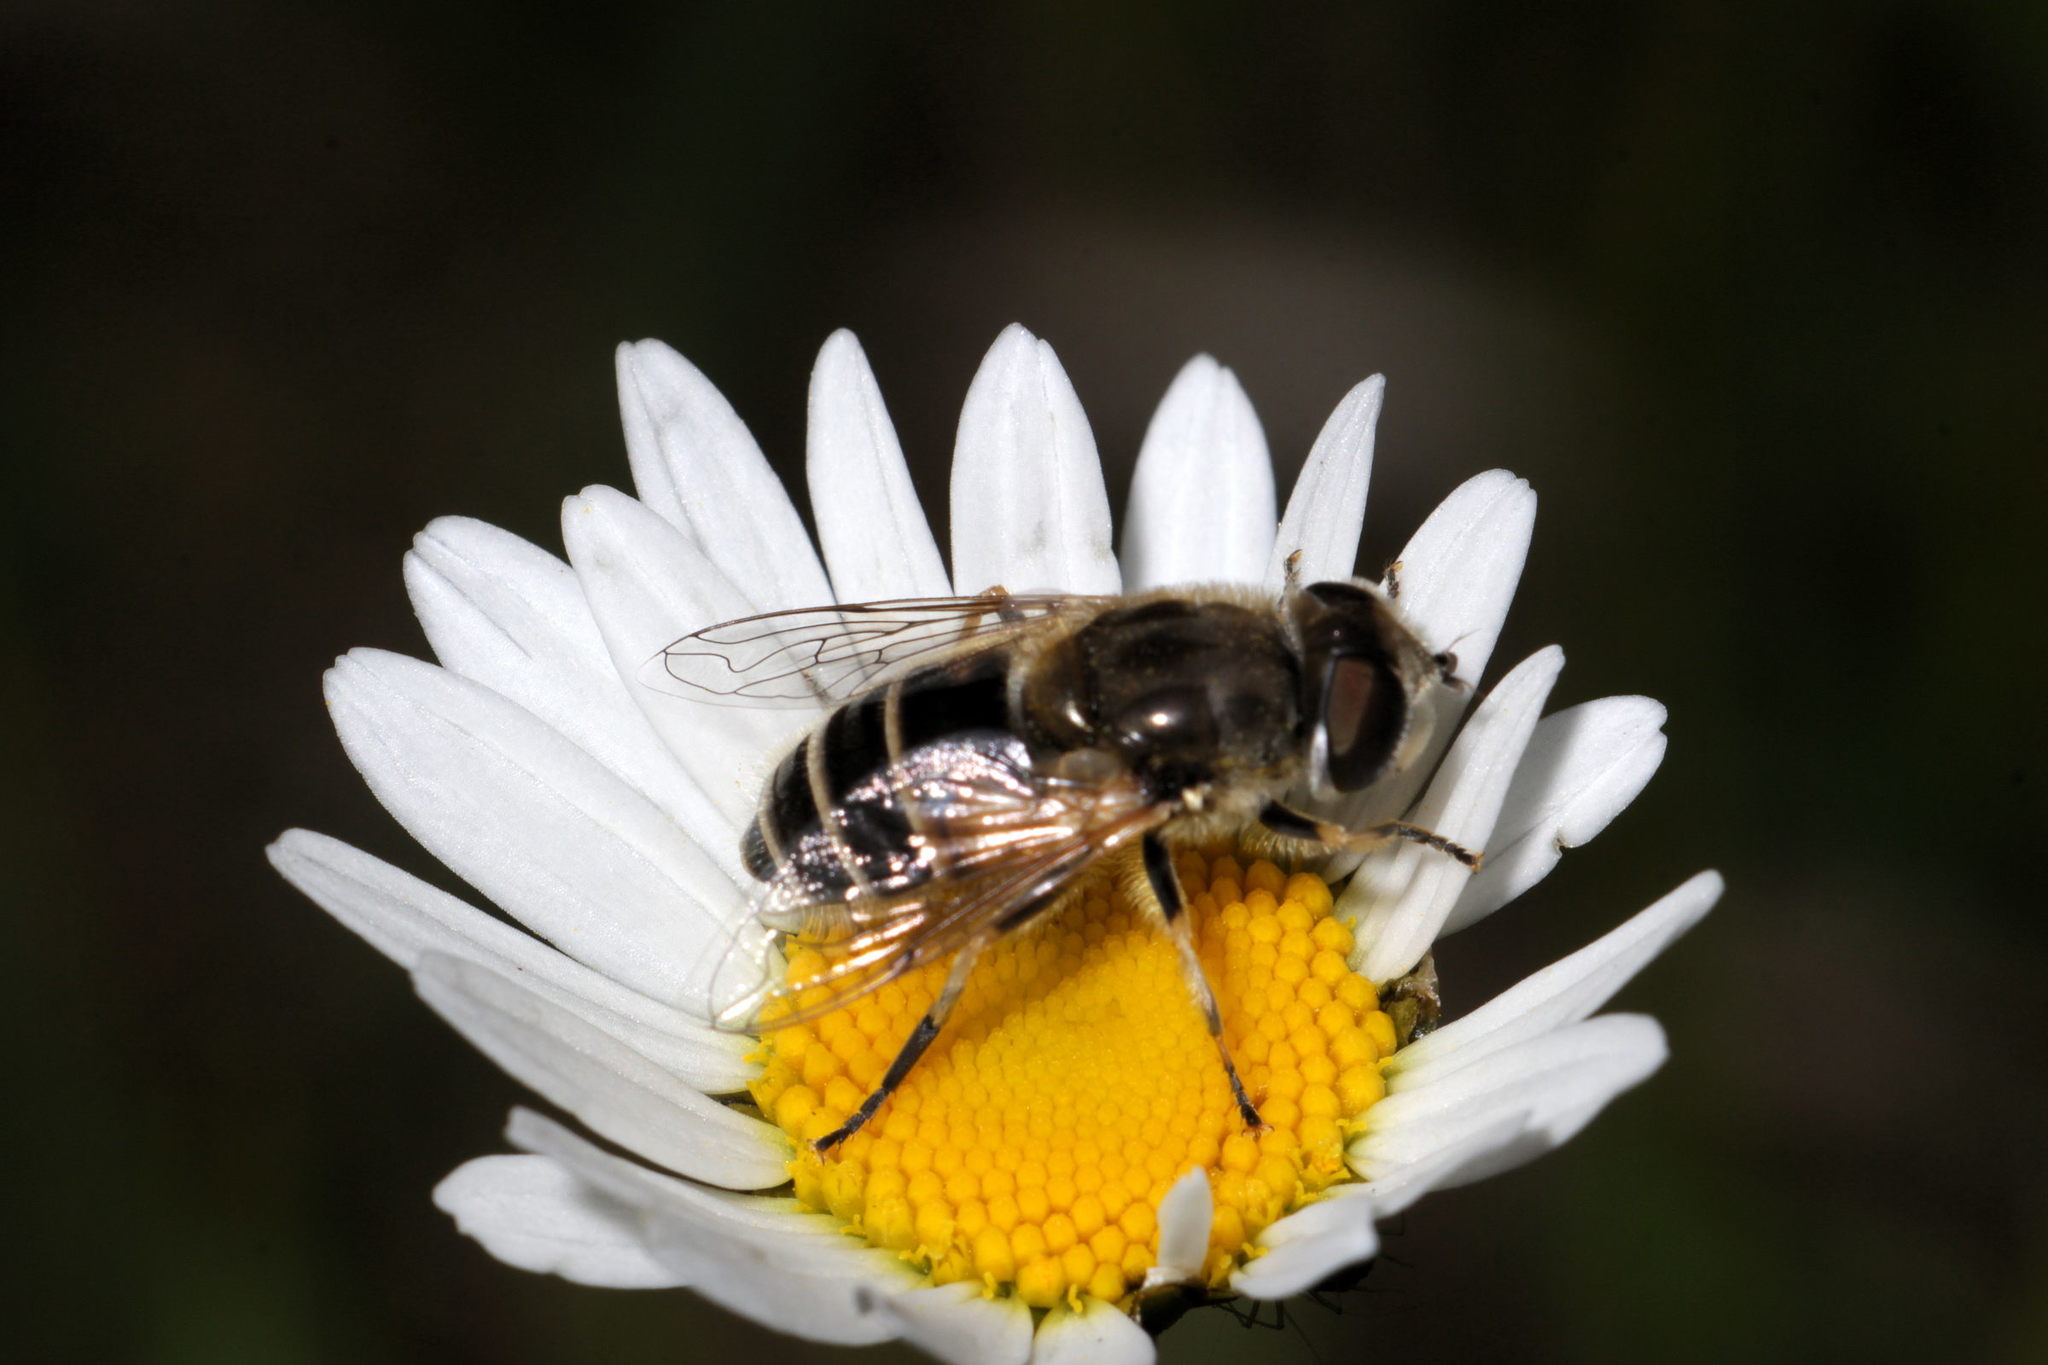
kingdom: Animalia
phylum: Arthropoda
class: Insecta
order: Diptera
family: Syrphidae
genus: Eristalis
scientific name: Eristalis nemorum
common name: Orange-spined drone fly
